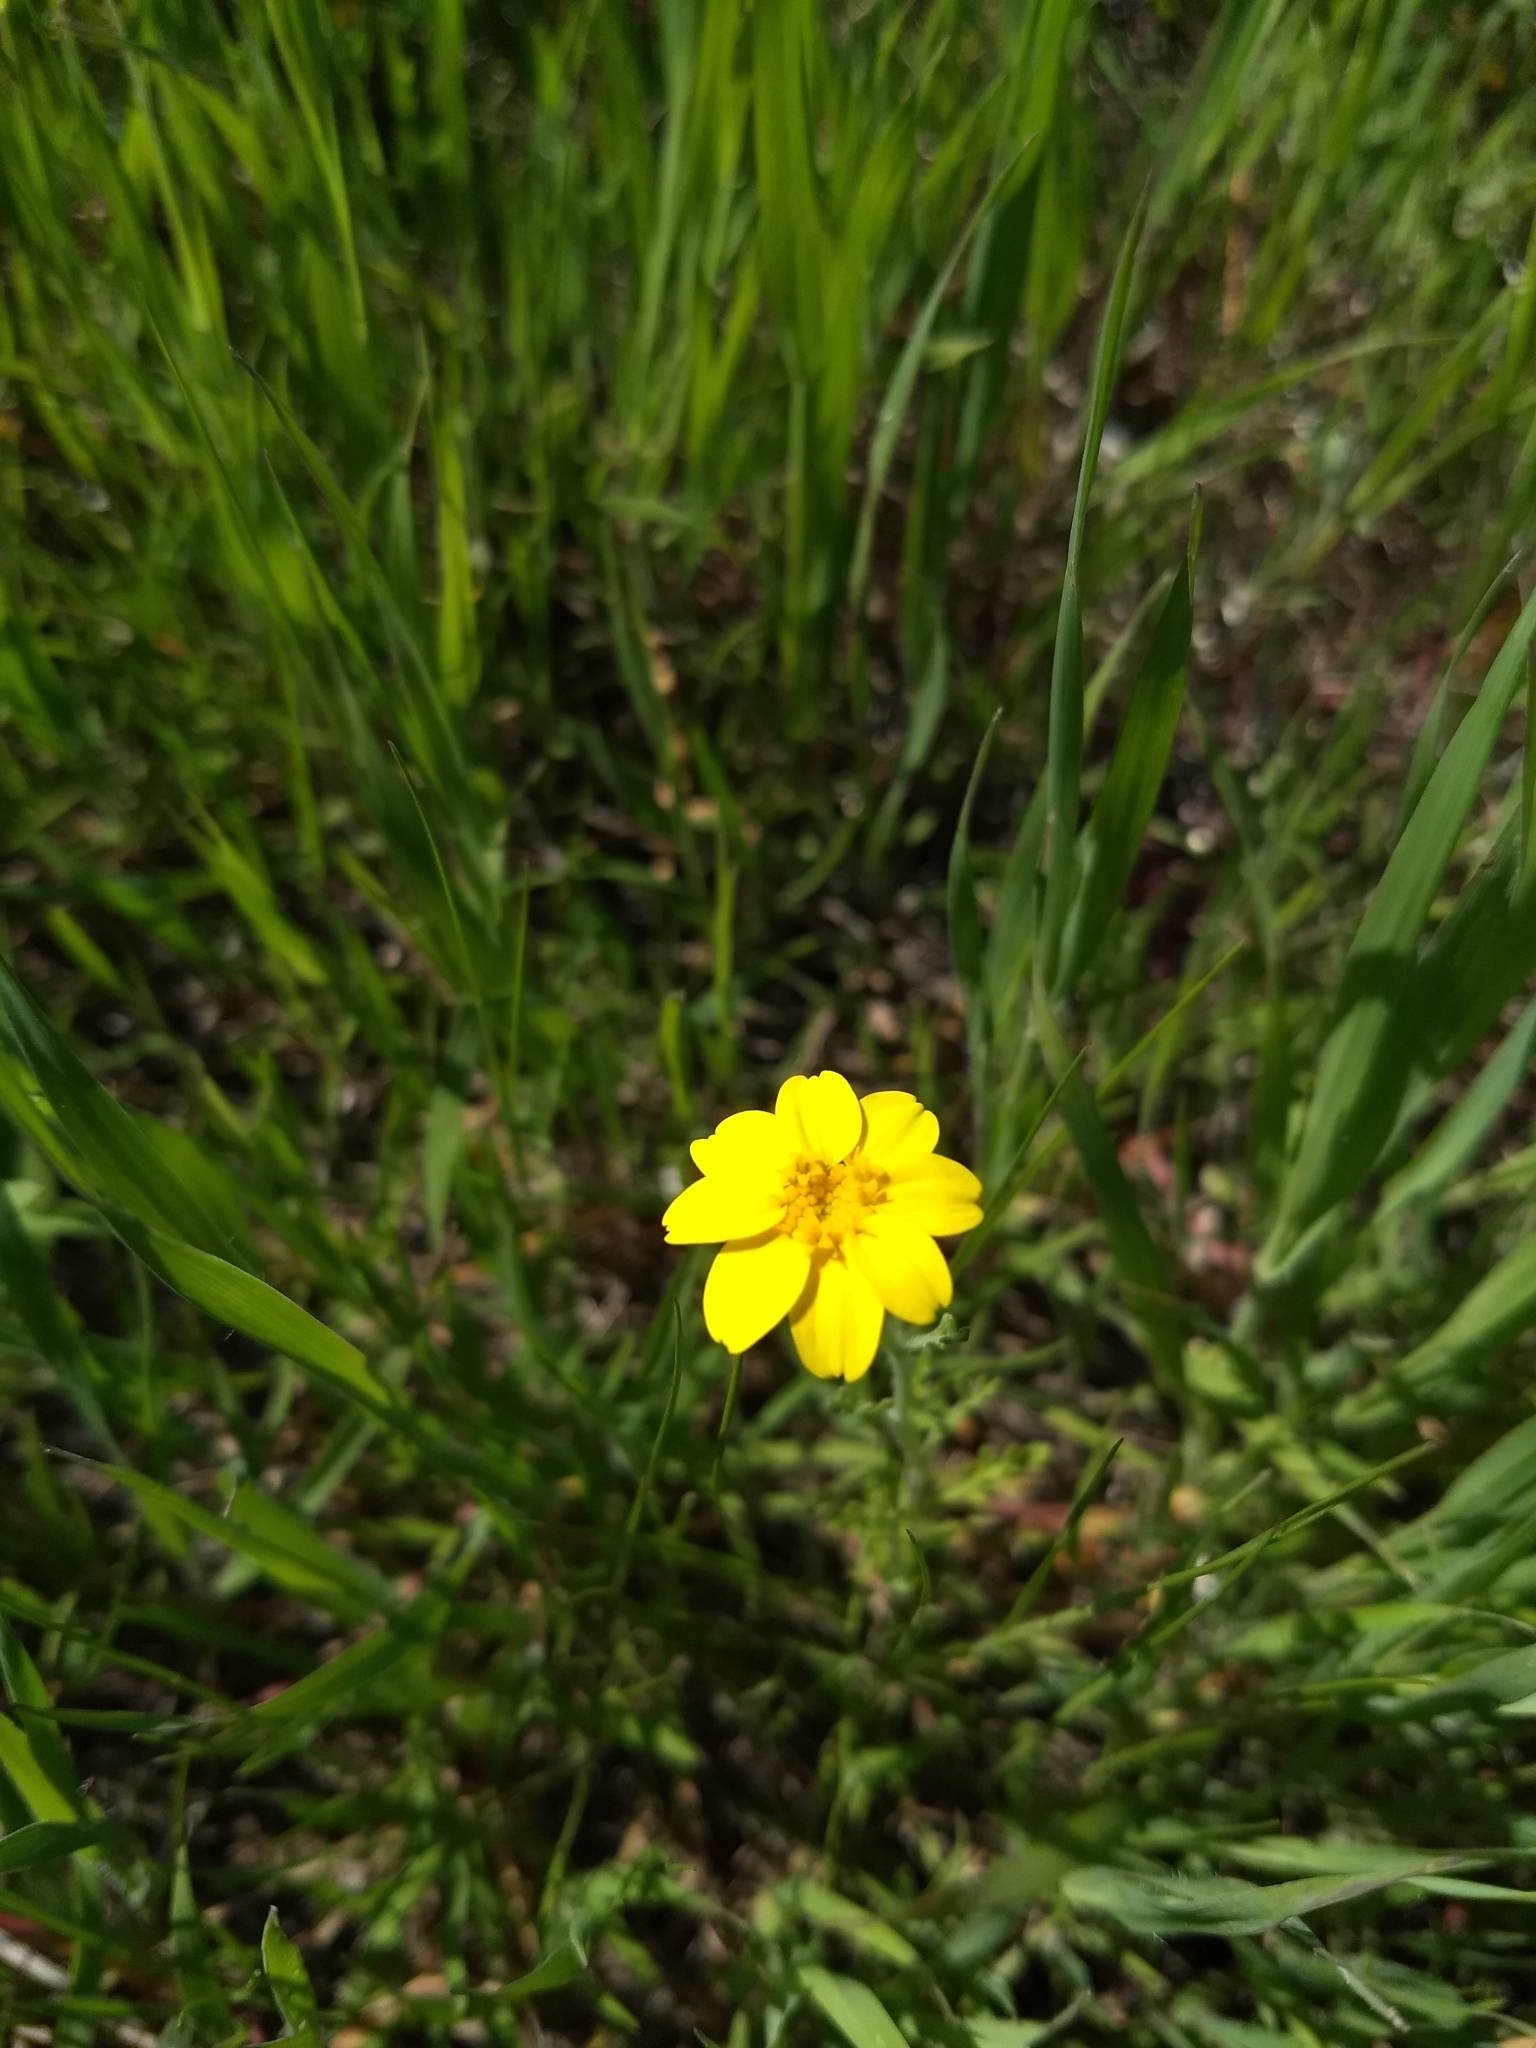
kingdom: Plantae
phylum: Tracheophyta
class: Magnoliopsida
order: Asterales
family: Asteraceae
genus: Pseudobahia
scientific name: Pseudobahia peirsonii
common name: Tulare psudobahia
